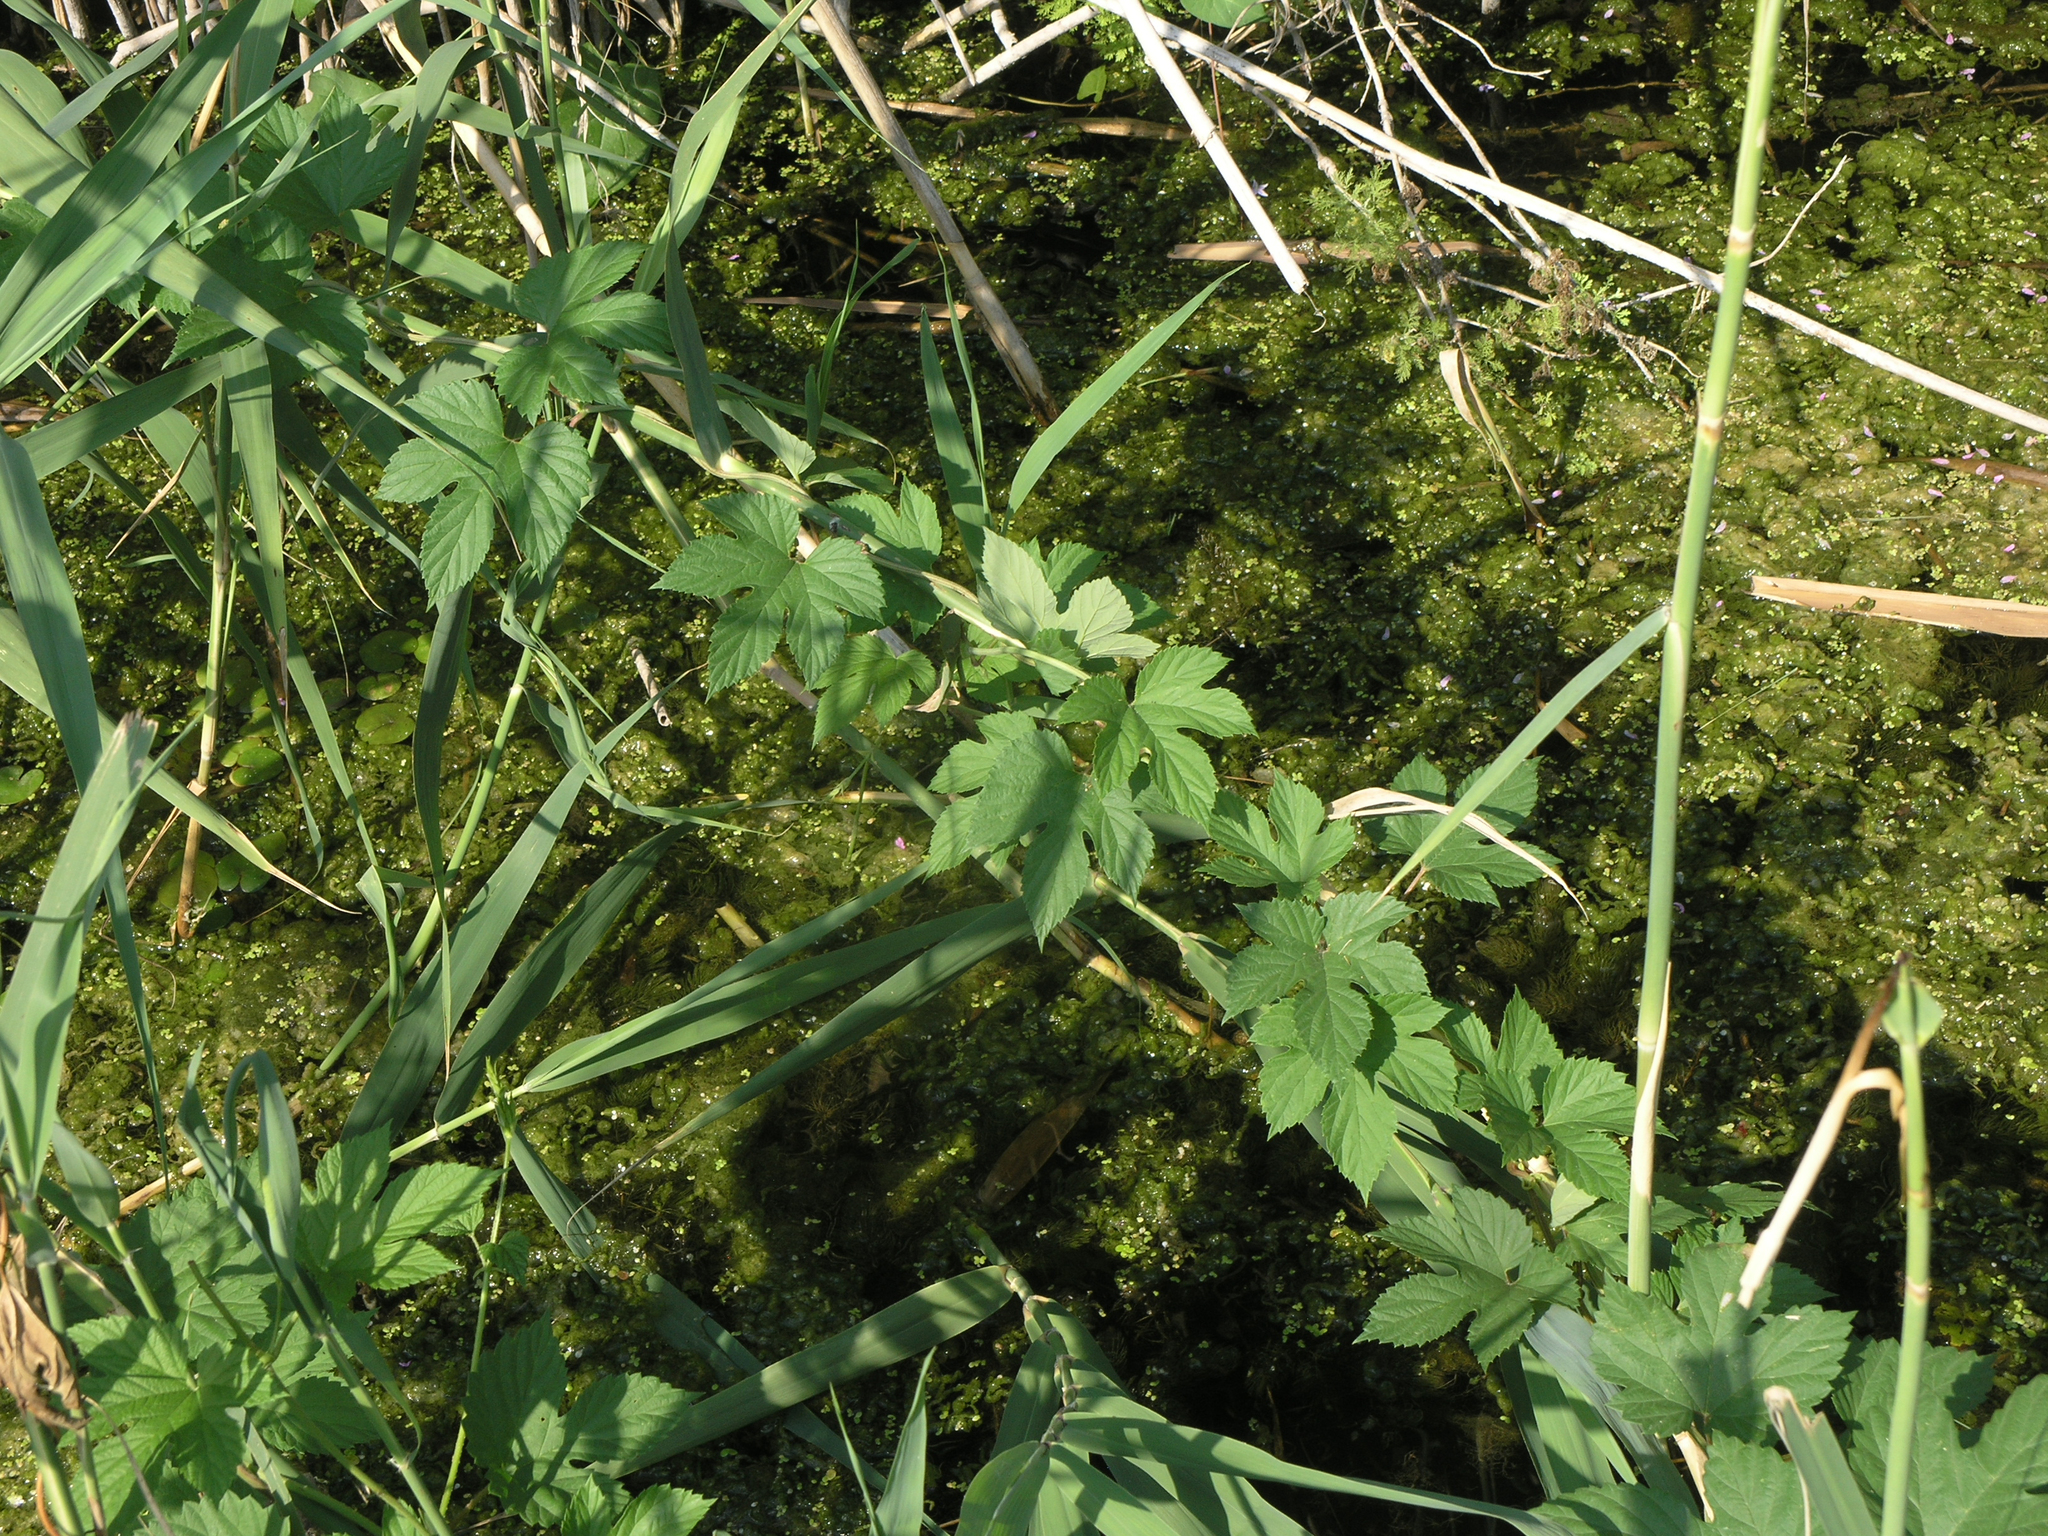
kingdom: Plantae
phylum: Tracheophyta
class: Magnoliopsida
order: Rosales
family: Cannabaceae
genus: Humulus
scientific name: Humulus lupulus
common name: Hop
